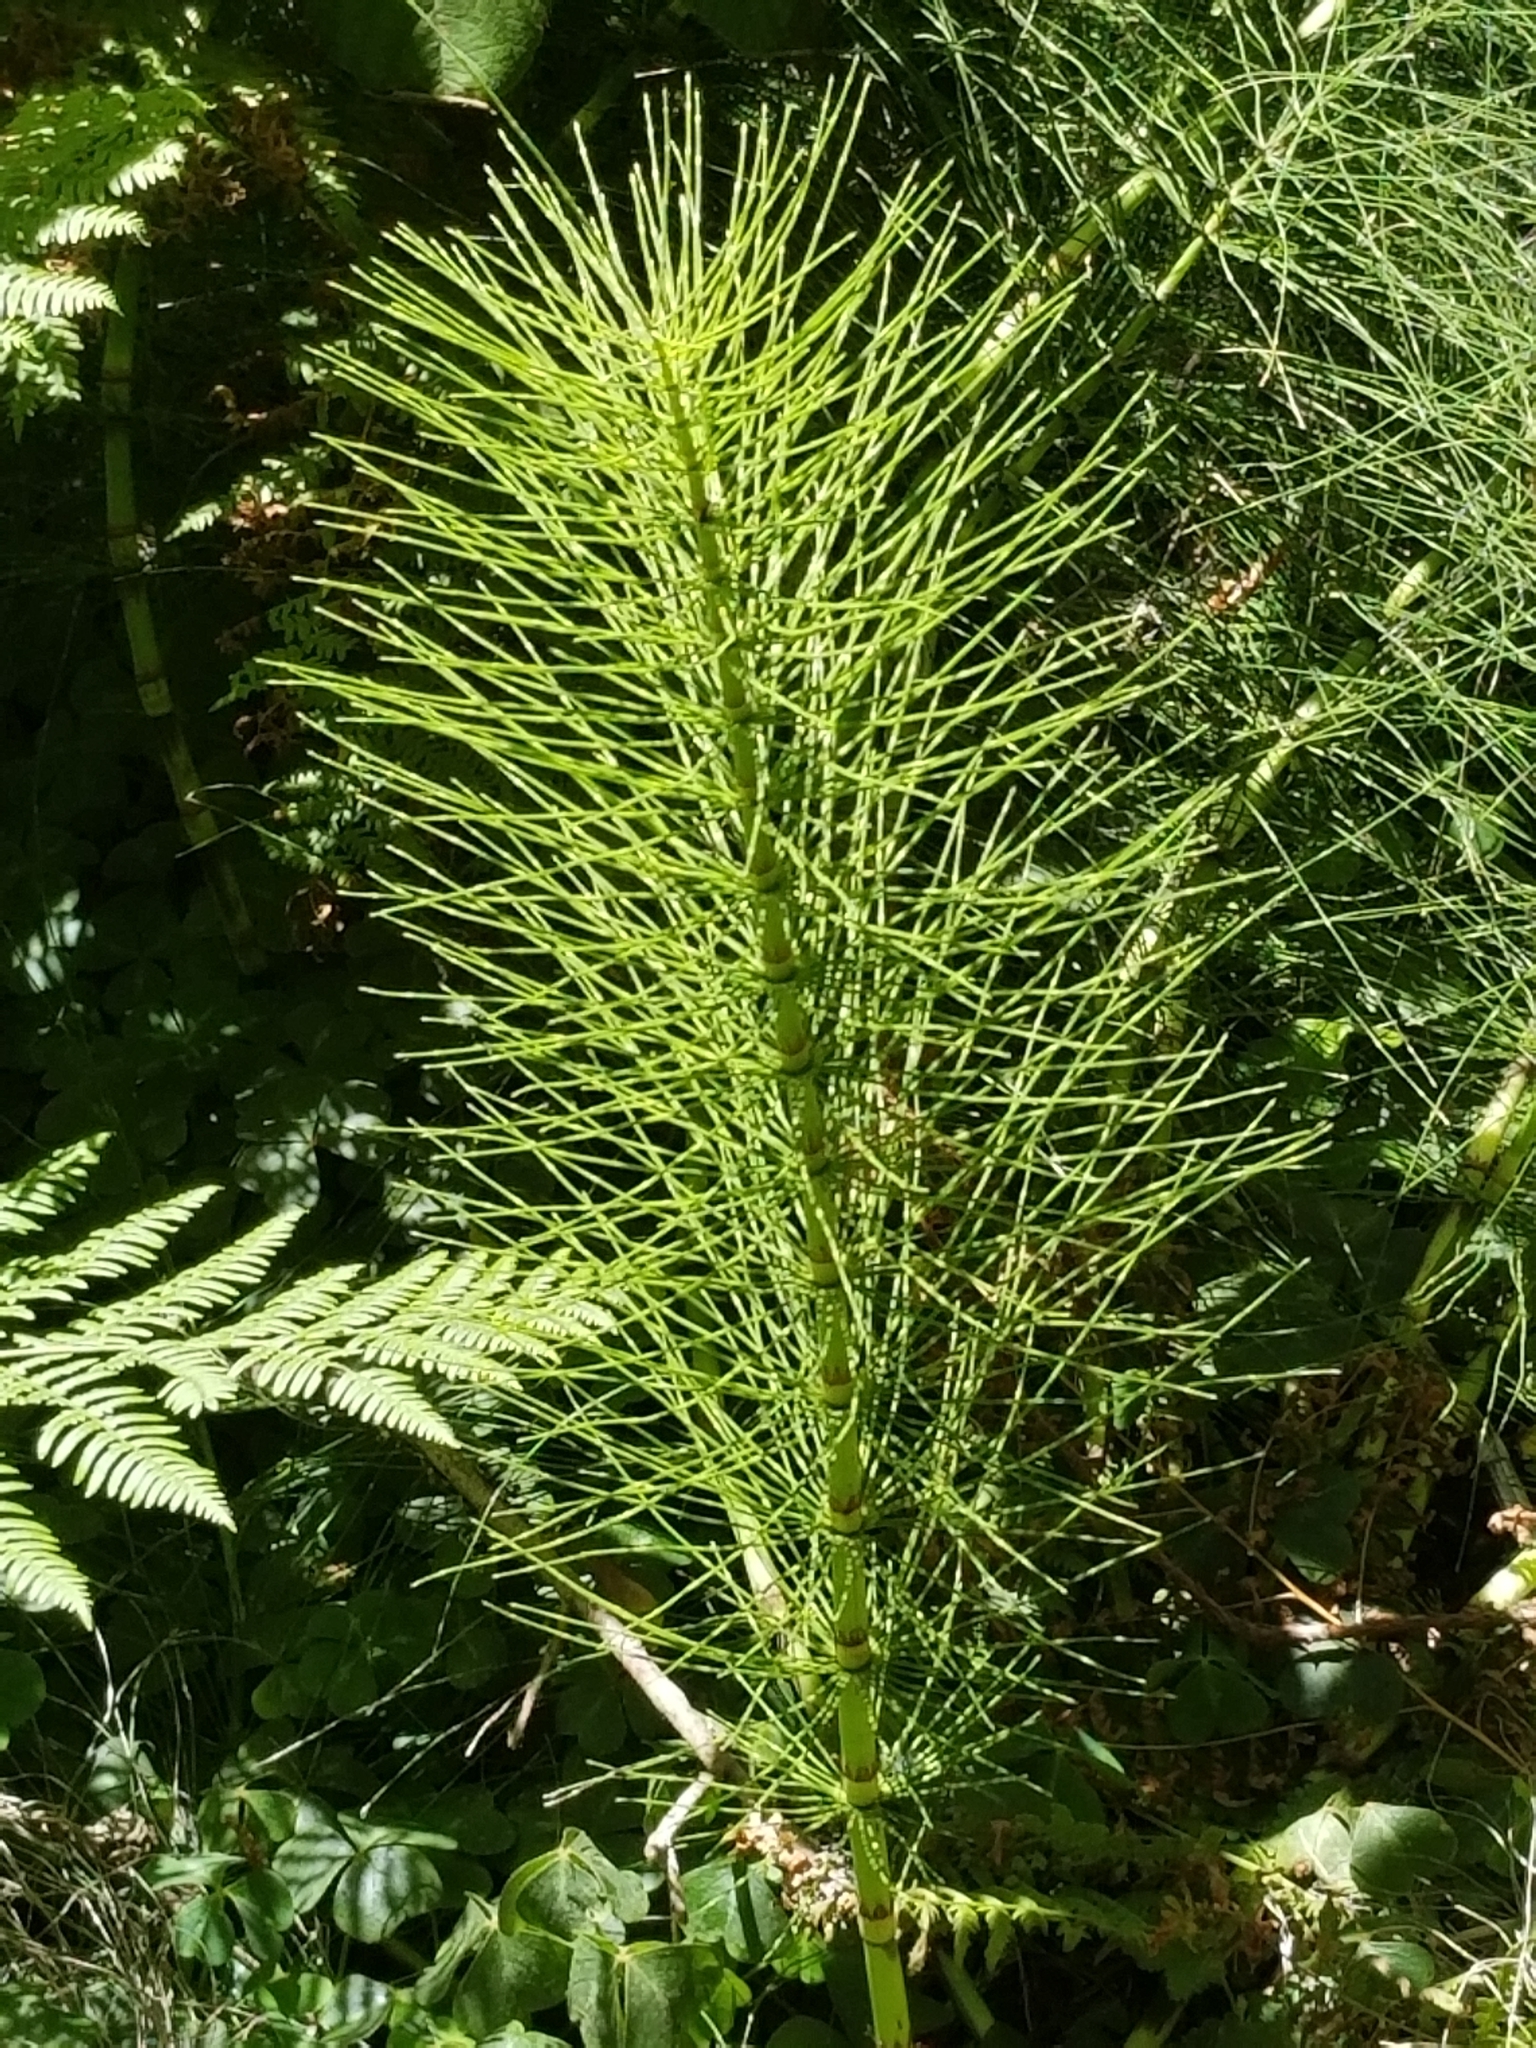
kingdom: Plantae
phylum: Tracheophyta
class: Polypodiopsida
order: Equisetales
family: Equisetaceae
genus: Equisetum
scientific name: Equisetum telmateia
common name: Great horsetail
